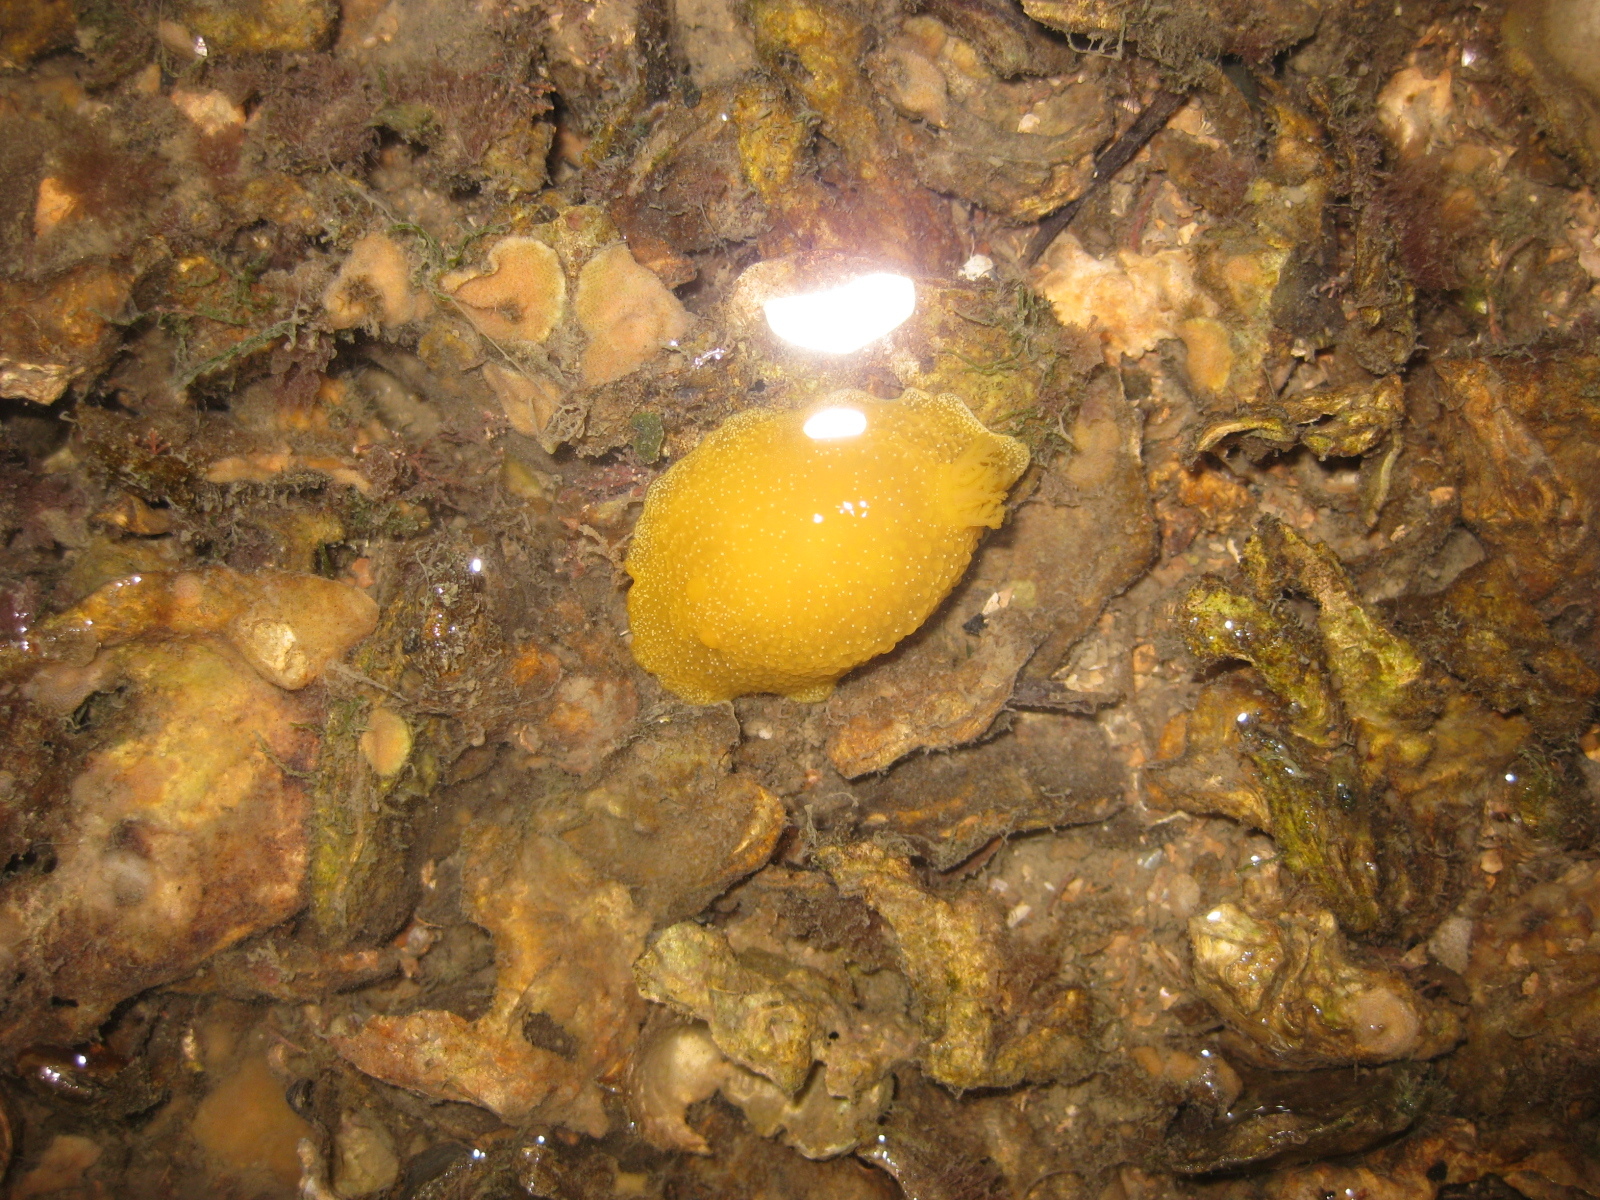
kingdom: Animalia
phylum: Mollusca
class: Gastropoda
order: Nudibranchia
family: Dendrodorididae
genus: Dendrodoris
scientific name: Dendrodoris citrina
